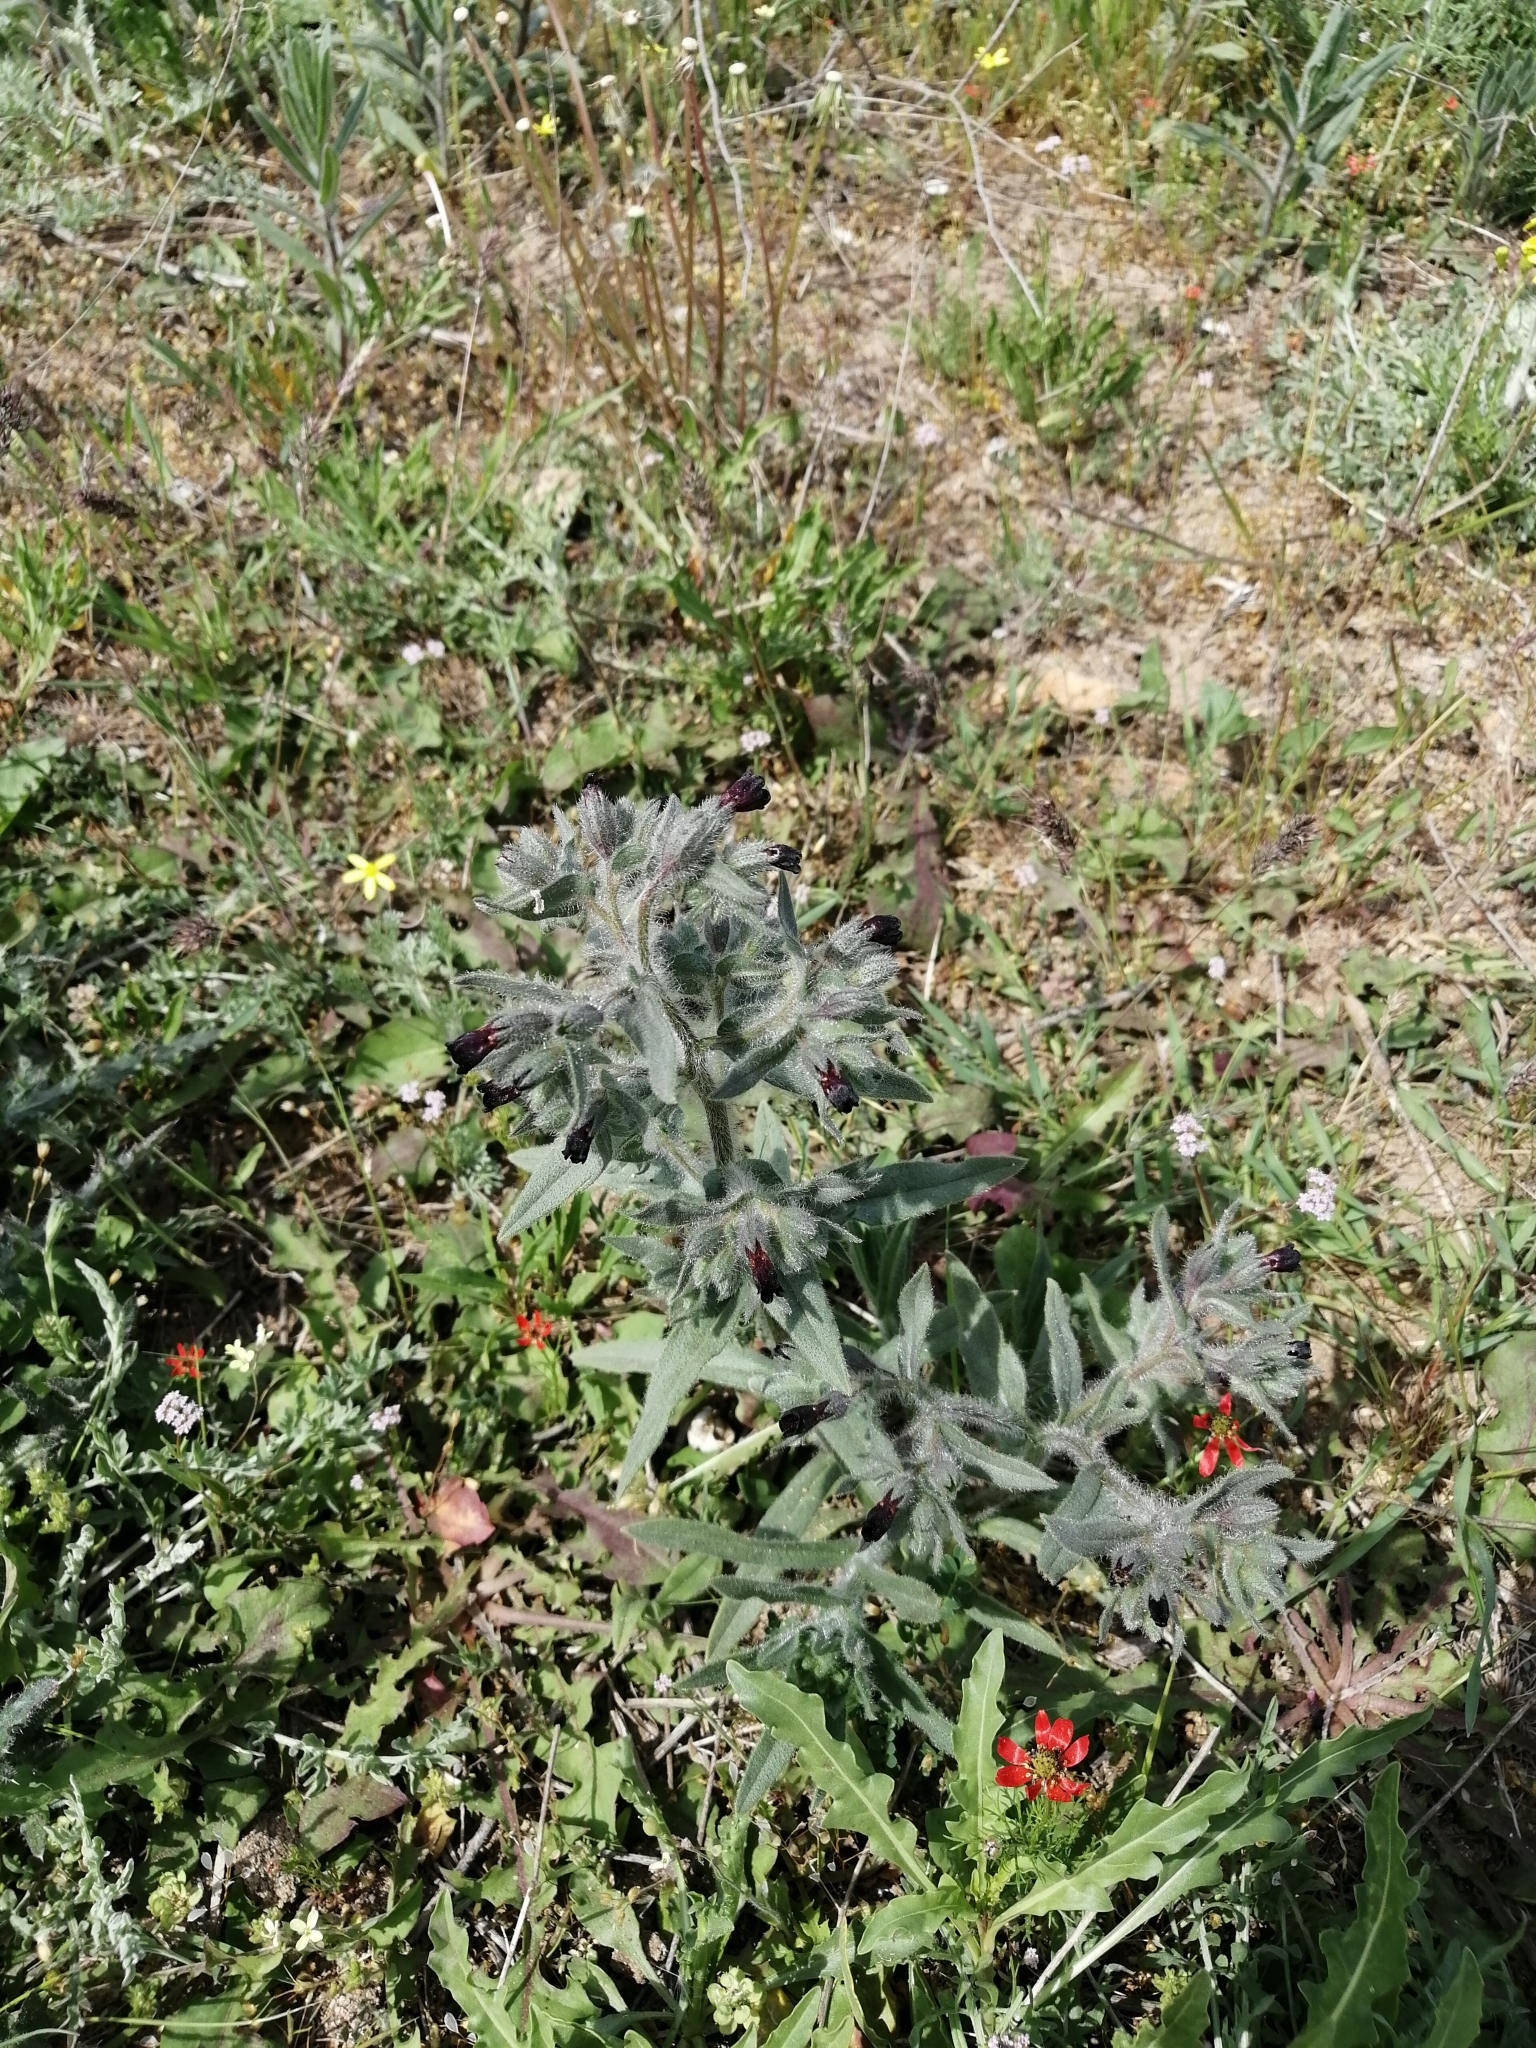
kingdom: Plantae
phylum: Tracheophyta
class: Magnoliopsida
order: Boraginales
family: Boraginaceae
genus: Nonea
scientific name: Nonea pulla
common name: Brown nonea
